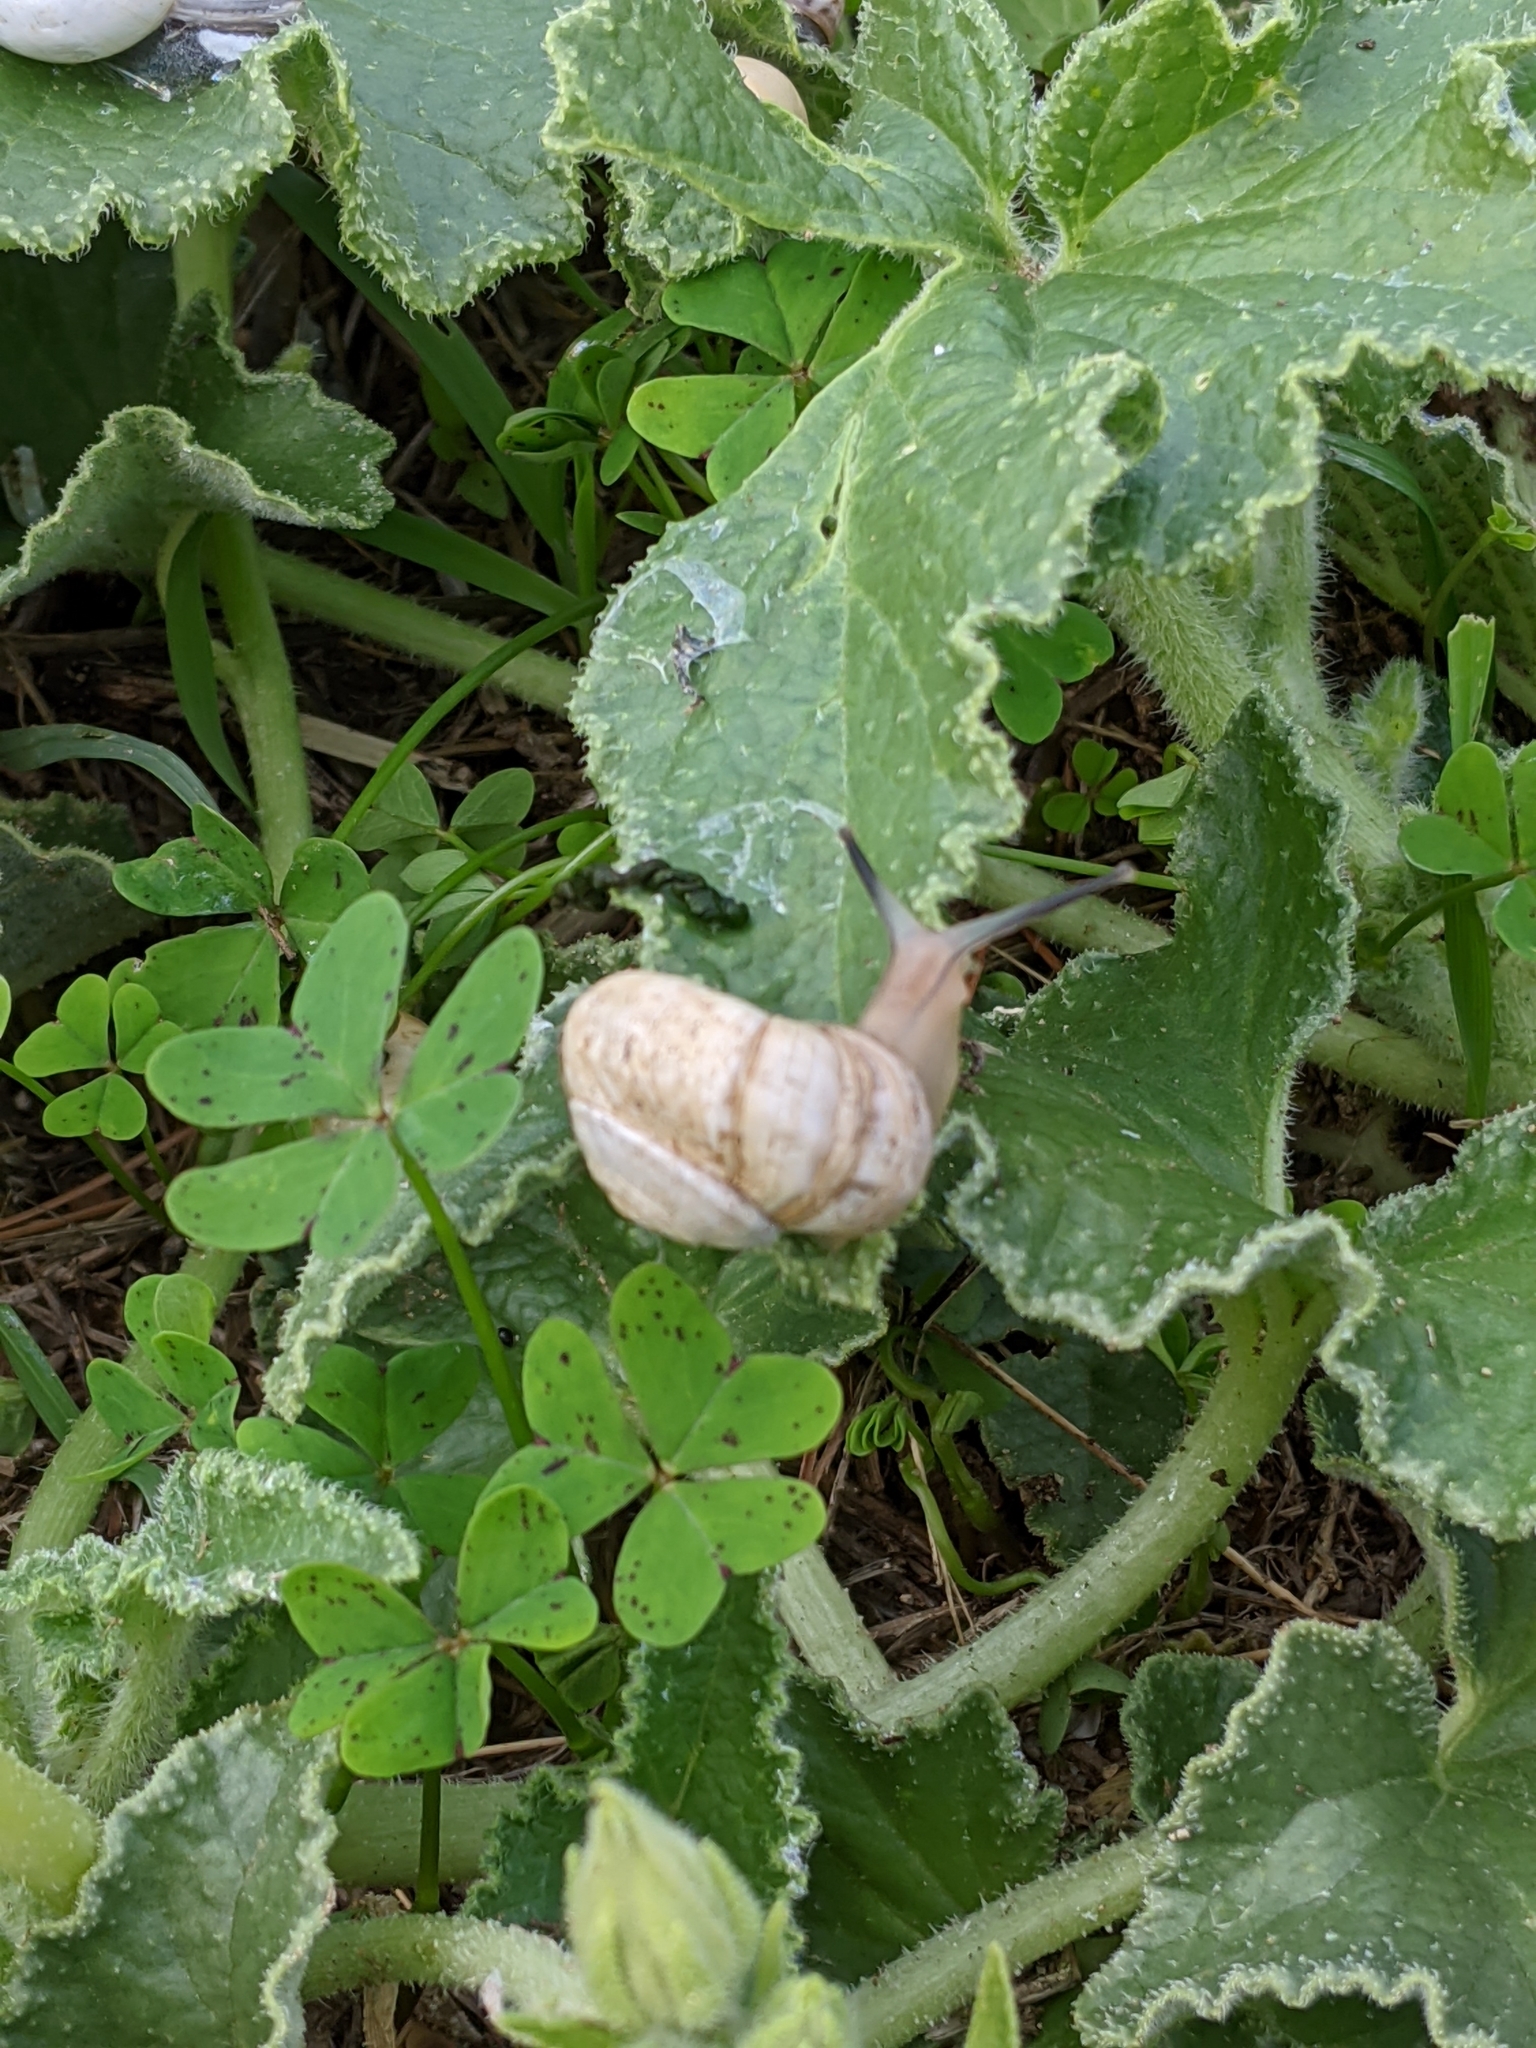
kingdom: Animalia
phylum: Mollusca
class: Gastropoda
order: Stylommatophora
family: Helicidae
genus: Theba
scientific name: Theba pisana
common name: White snail
